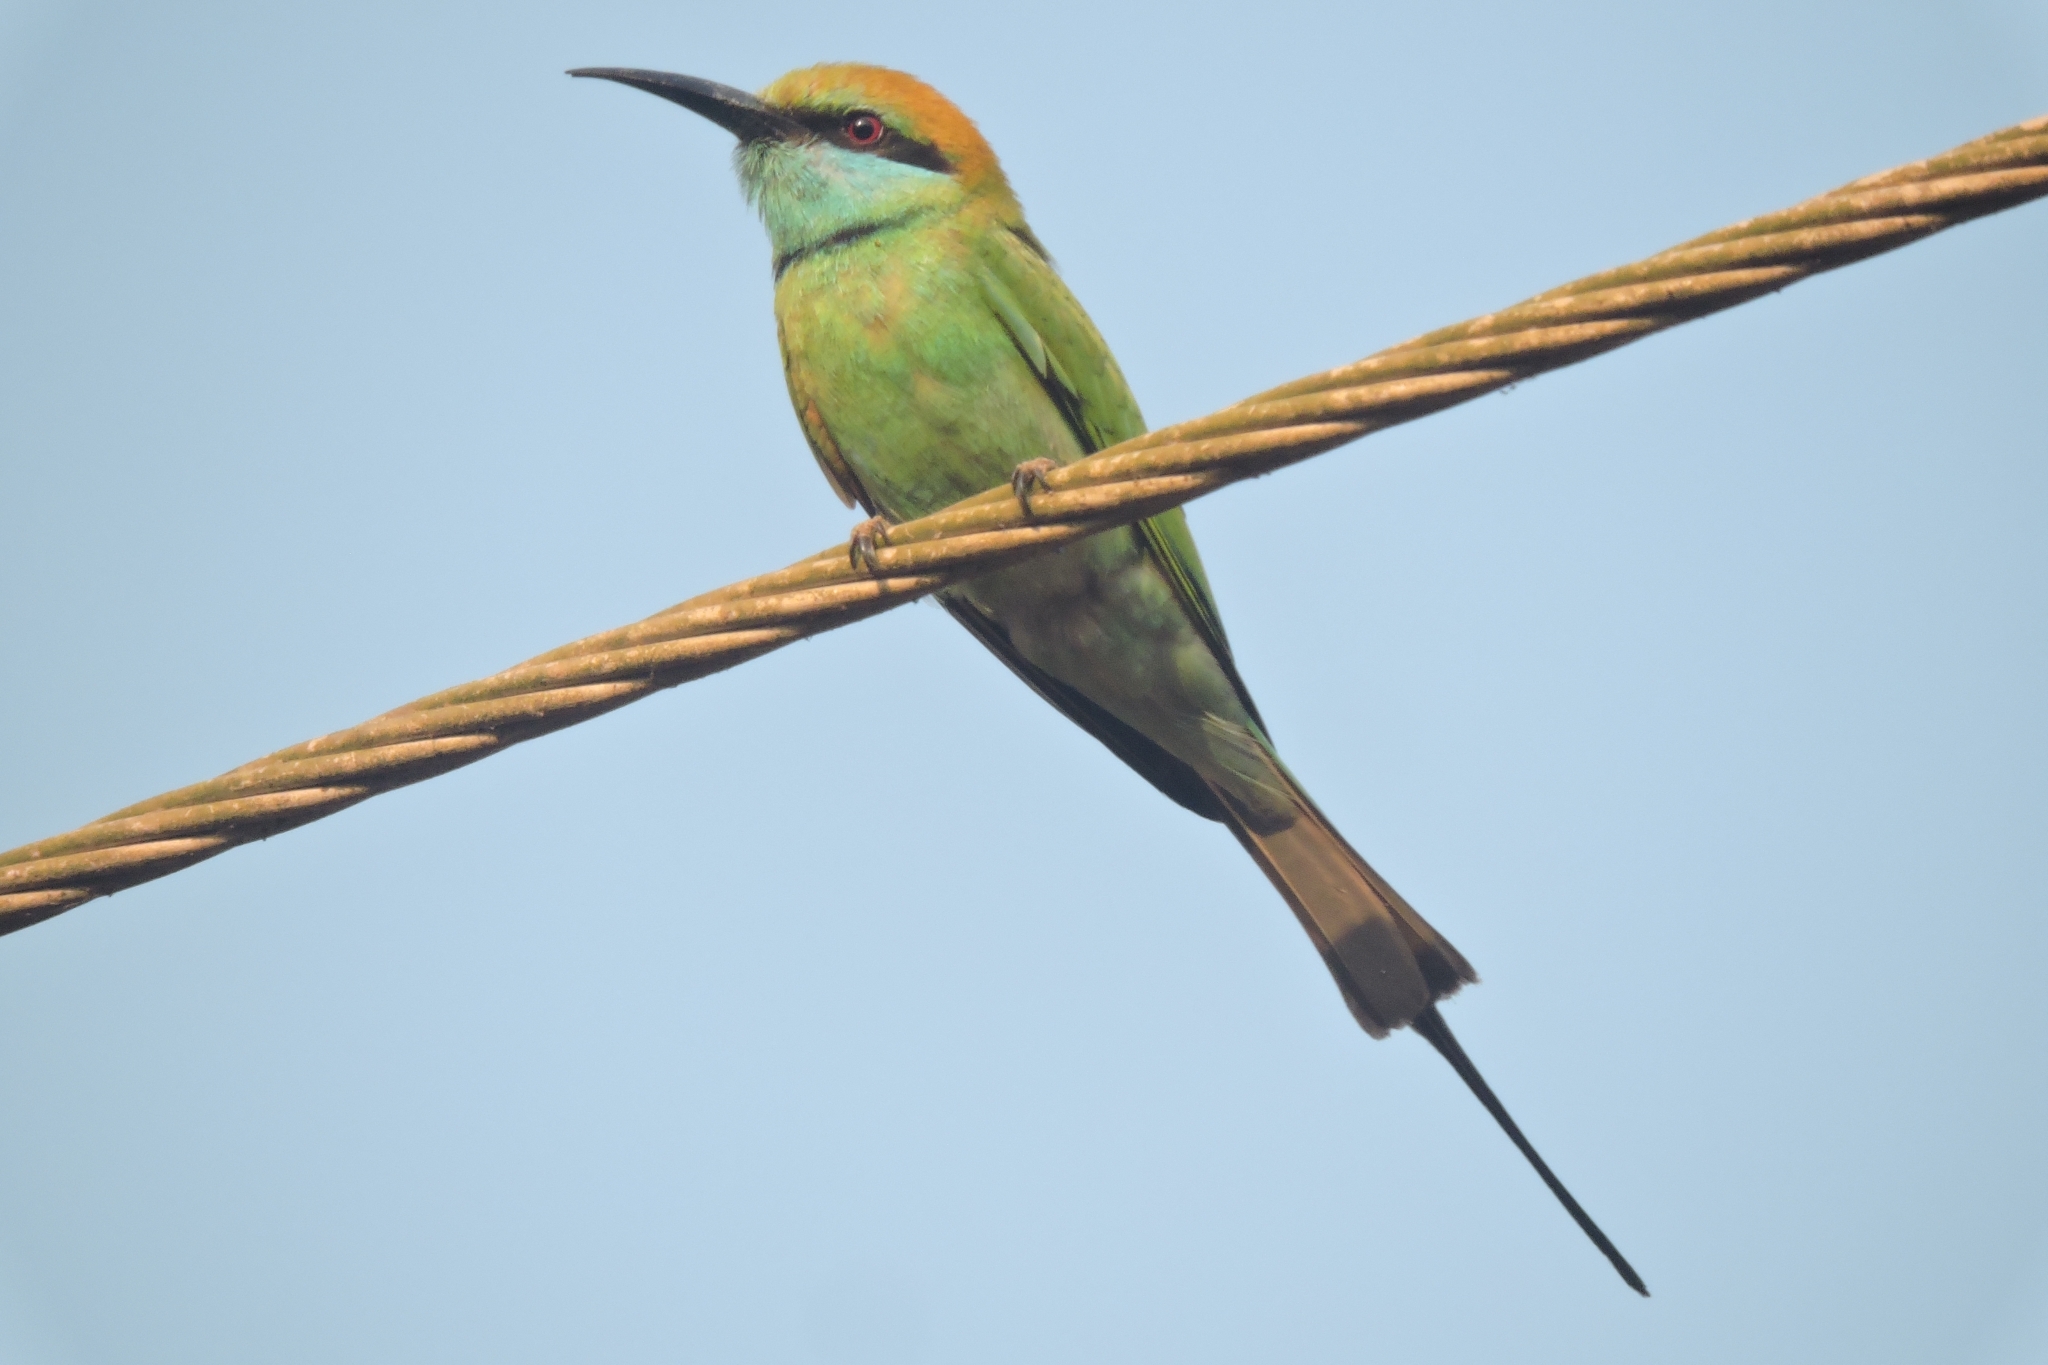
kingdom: Animalia
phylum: Chordata
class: Aves
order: Coraciiformes
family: Meropidae
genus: Merops
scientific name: Merops orientalis
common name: Green bee-eater
